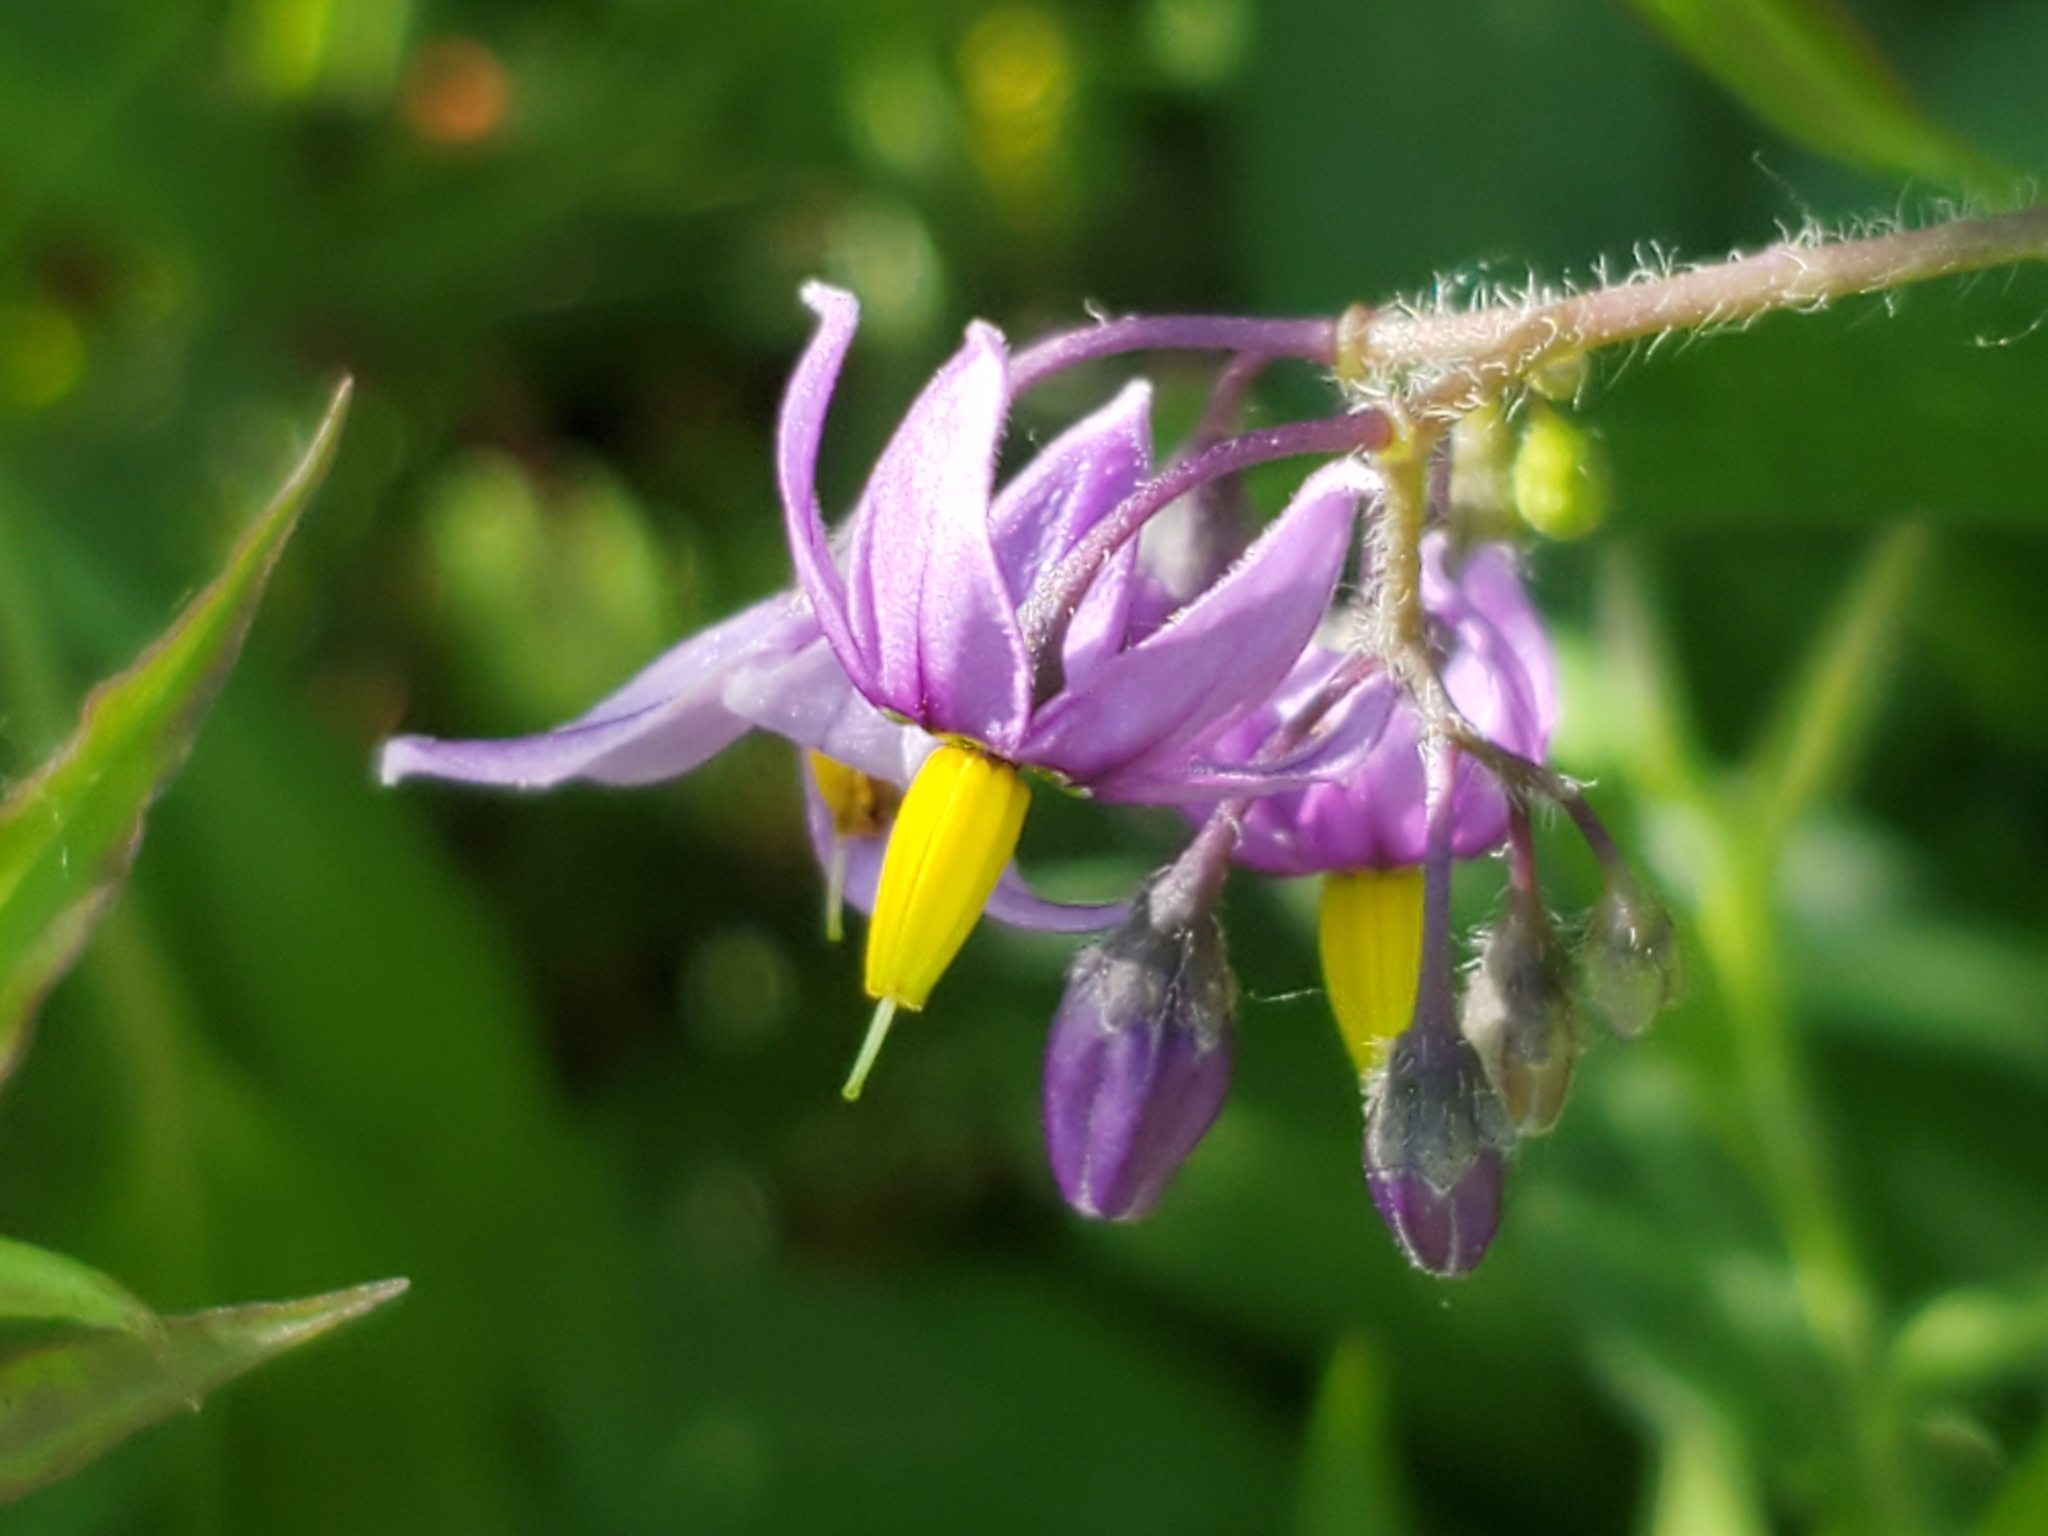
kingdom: Plantae
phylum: Tracheophyta
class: Magnoliopsida
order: Solanales
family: Solanaceae
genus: Solanum
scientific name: Solanum dulcamara
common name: Climbing nightshade
